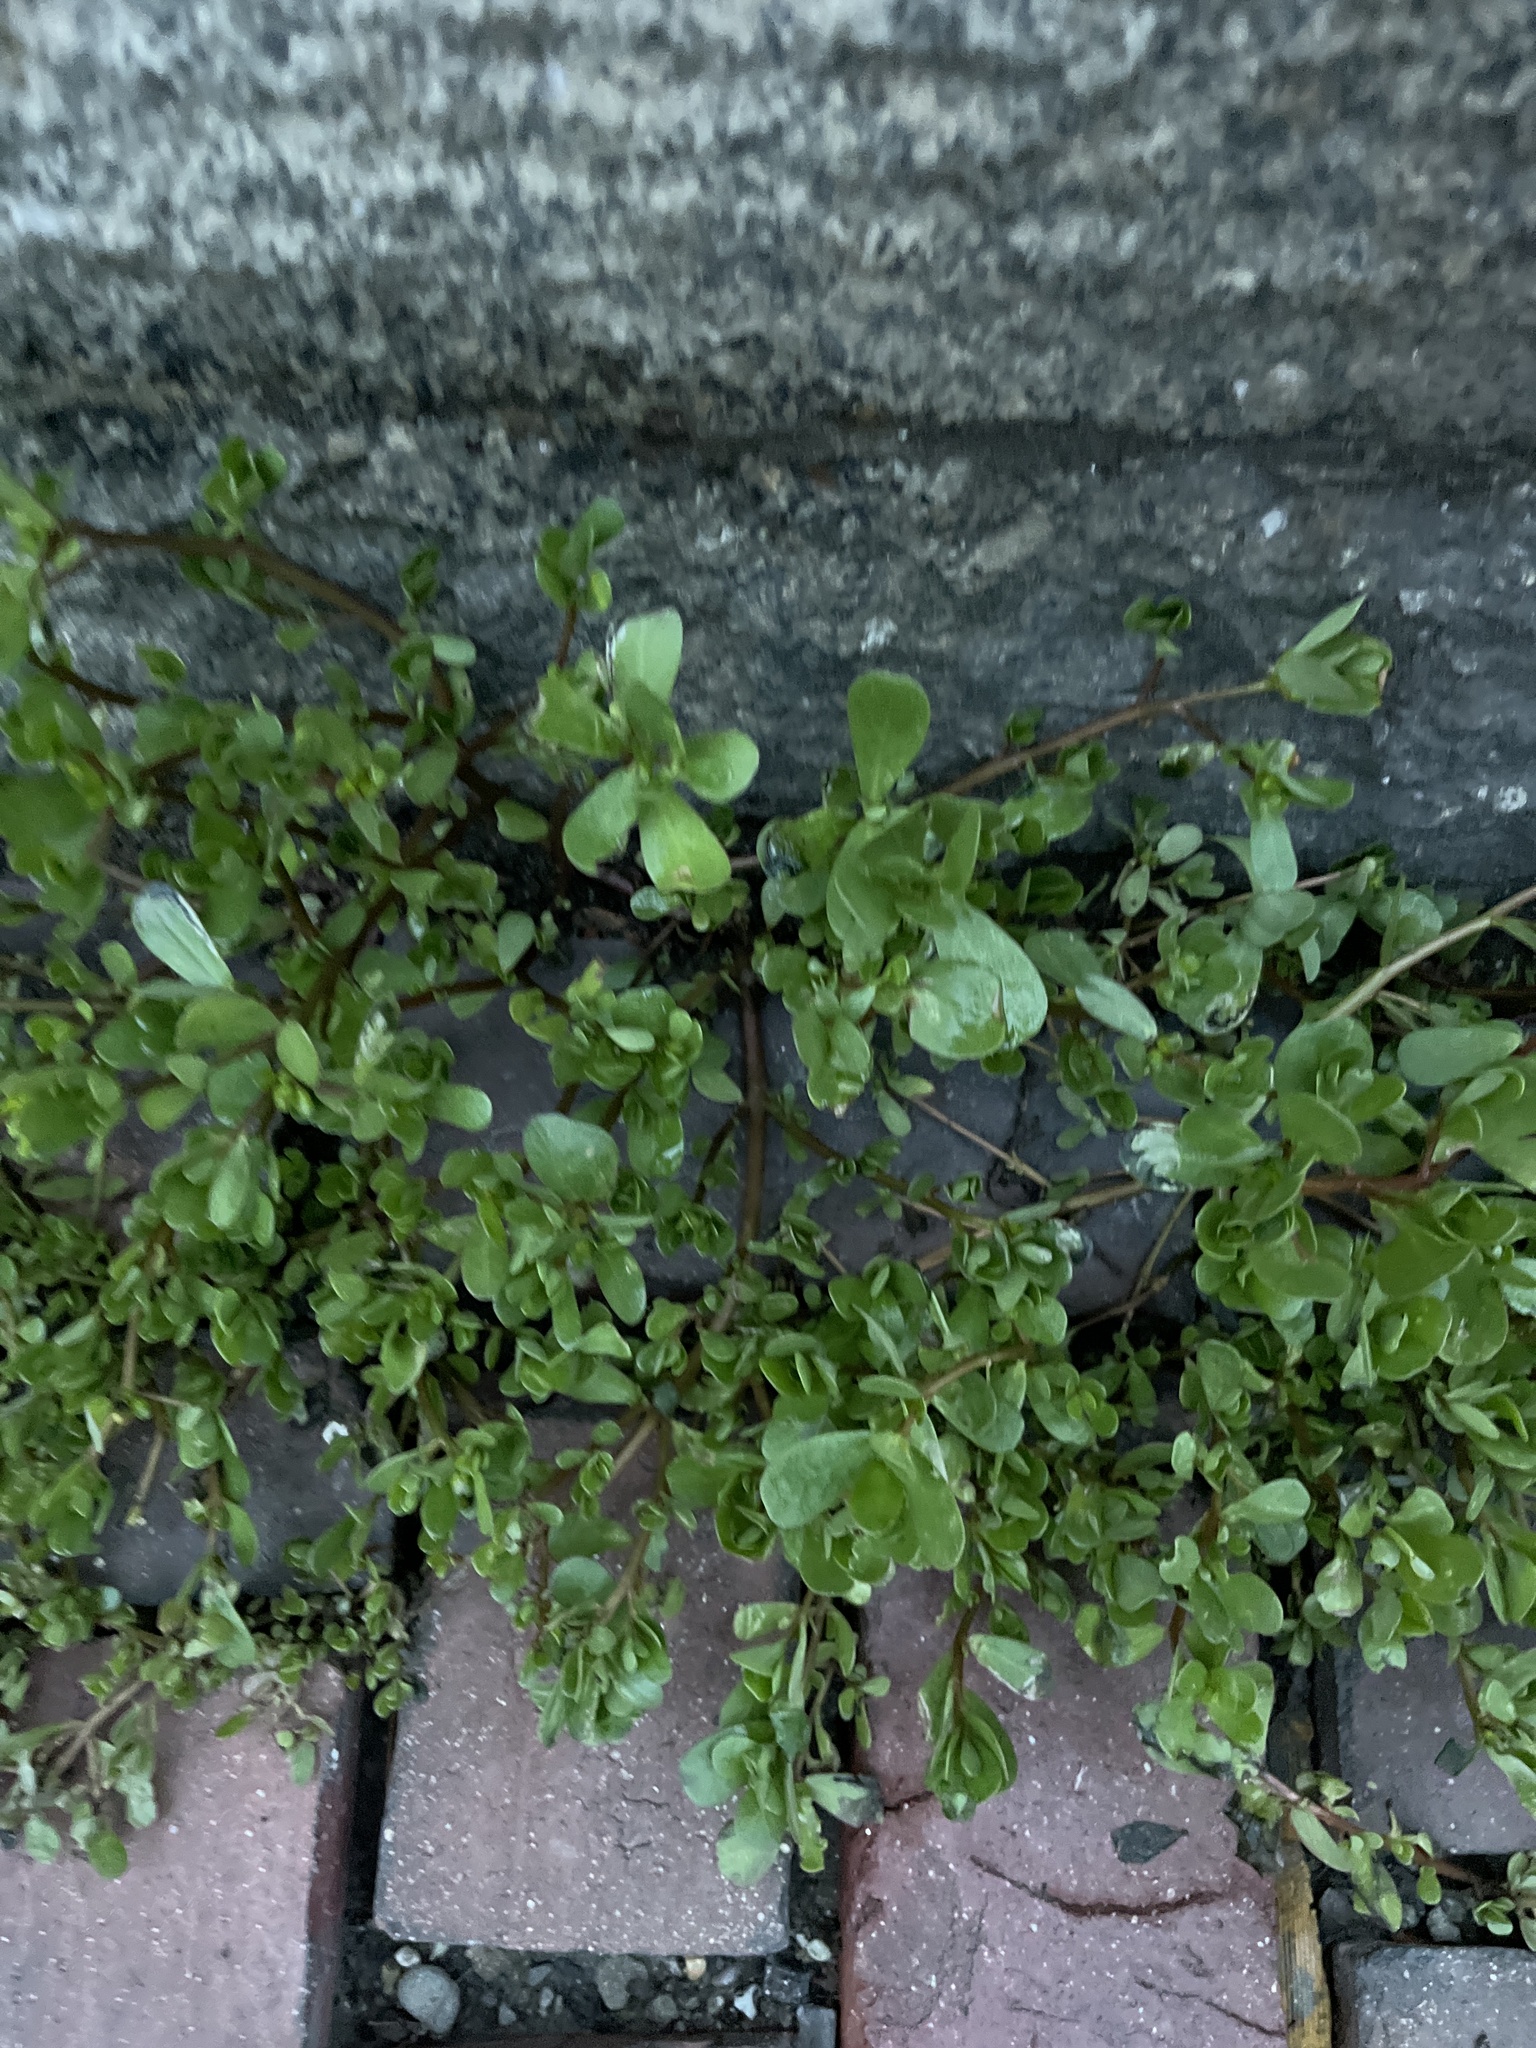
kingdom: Plantae
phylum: Tracheophyta
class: Magnoliopsida
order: Caryophyllales
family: Portulacaceae
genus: Portulaca
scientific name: Portulaca oleracea
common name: Common purslane
